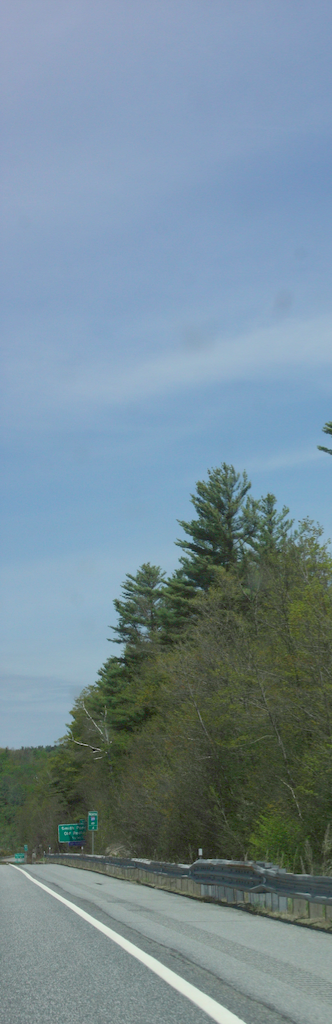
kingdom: Plantae
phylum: Tracheophyta
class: Pinopsida
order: Pinales
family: Pinaceae
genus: Pinus
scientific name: Pinus strobus
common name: Weymouth pine
